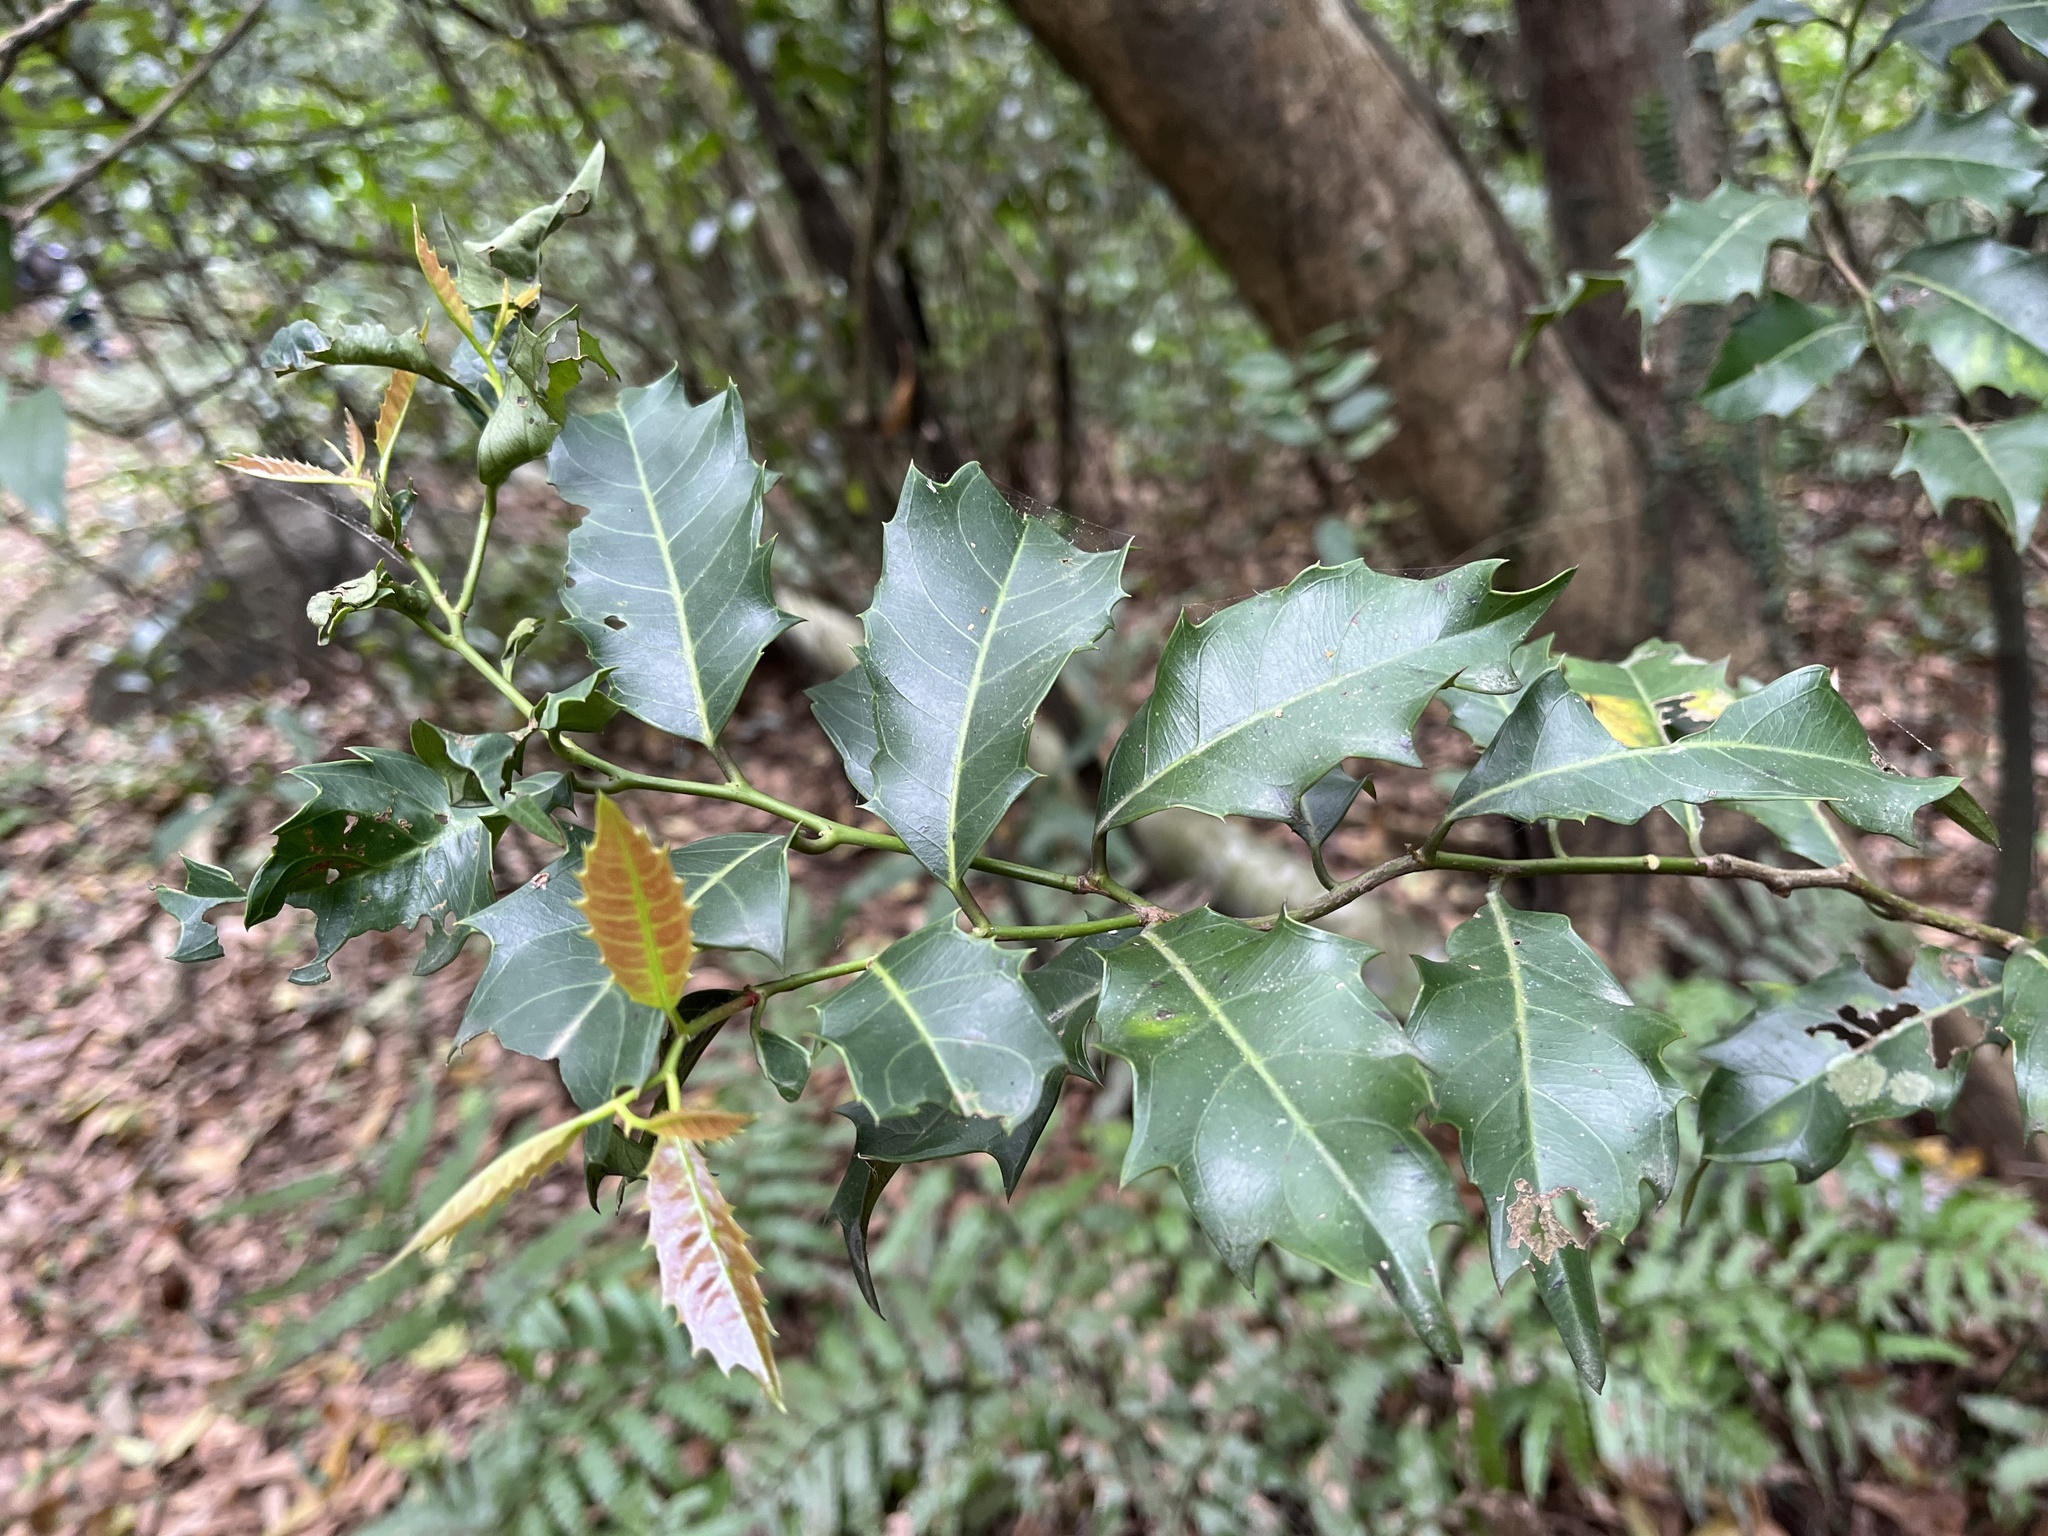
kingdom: Plantae
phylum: Tracheophyta
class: Magnoliopsida
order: Saxifragales
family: Iteaceae
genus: Itea
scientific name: Itea oldhamii
